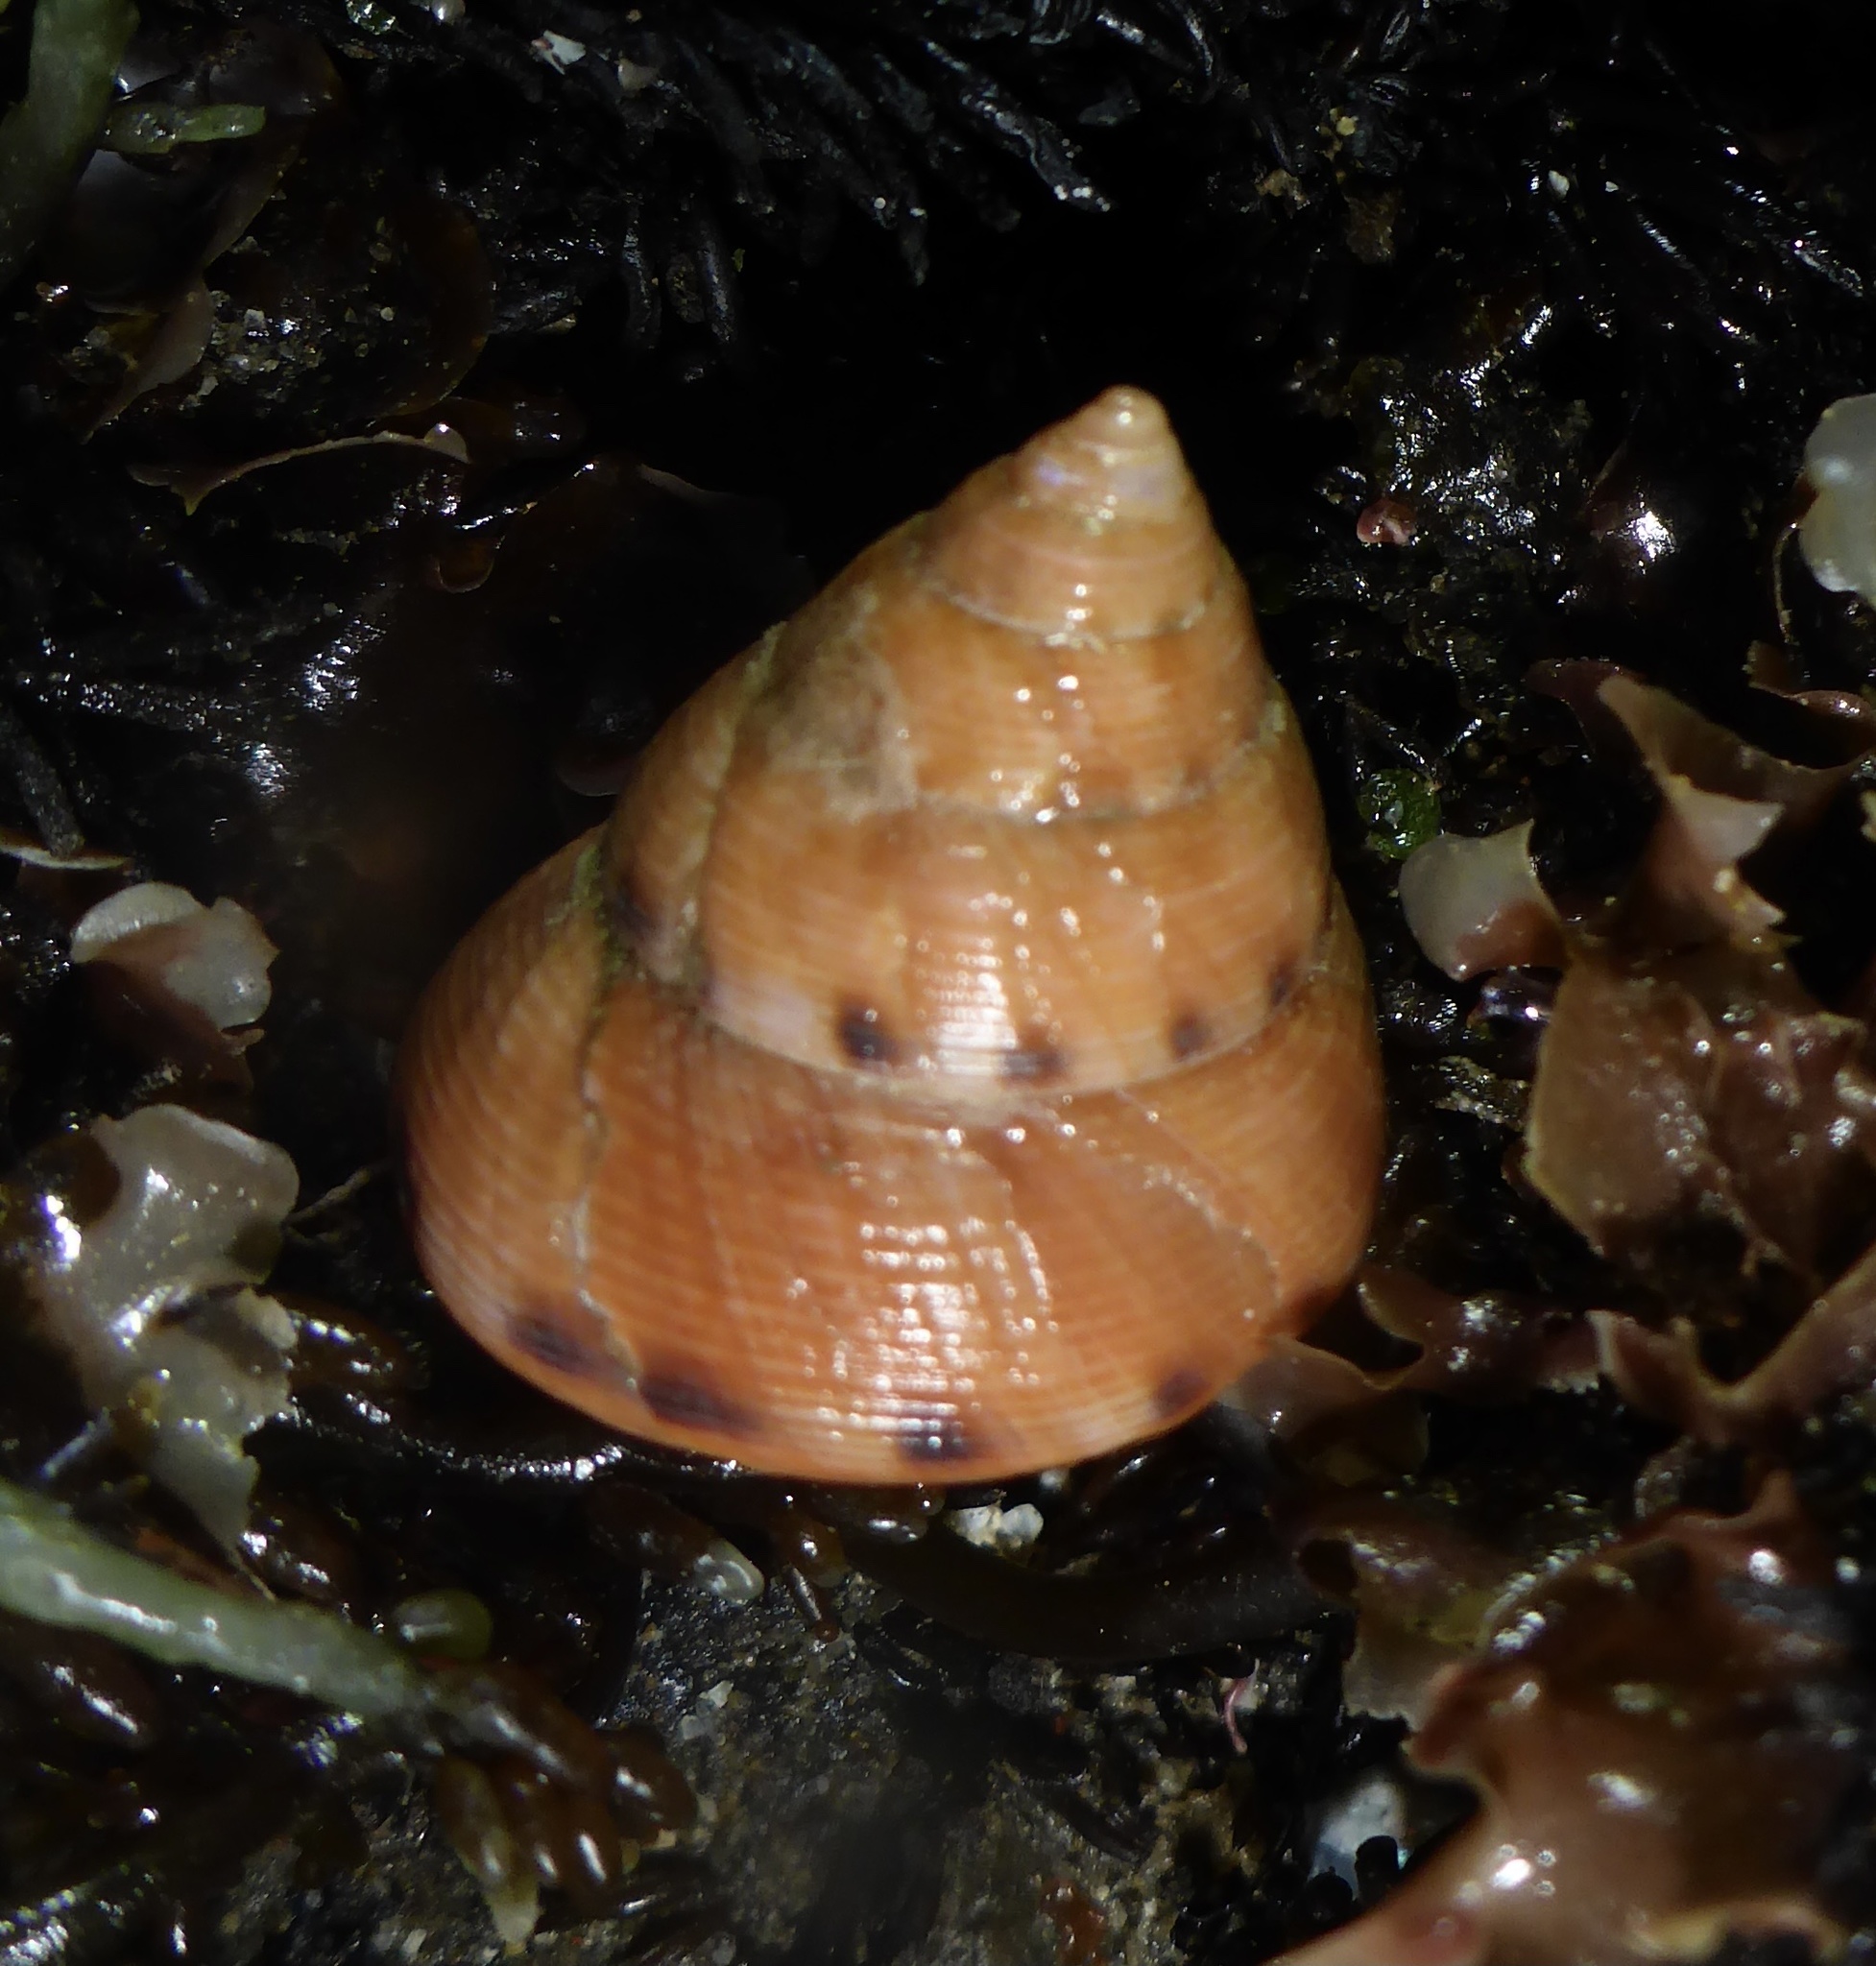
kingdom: Animalia
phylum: Mollusca
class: Gastropoda
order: Trochida
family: Calliostomatidae
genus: Calliostoma
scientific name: Calliostoma gloriosum
